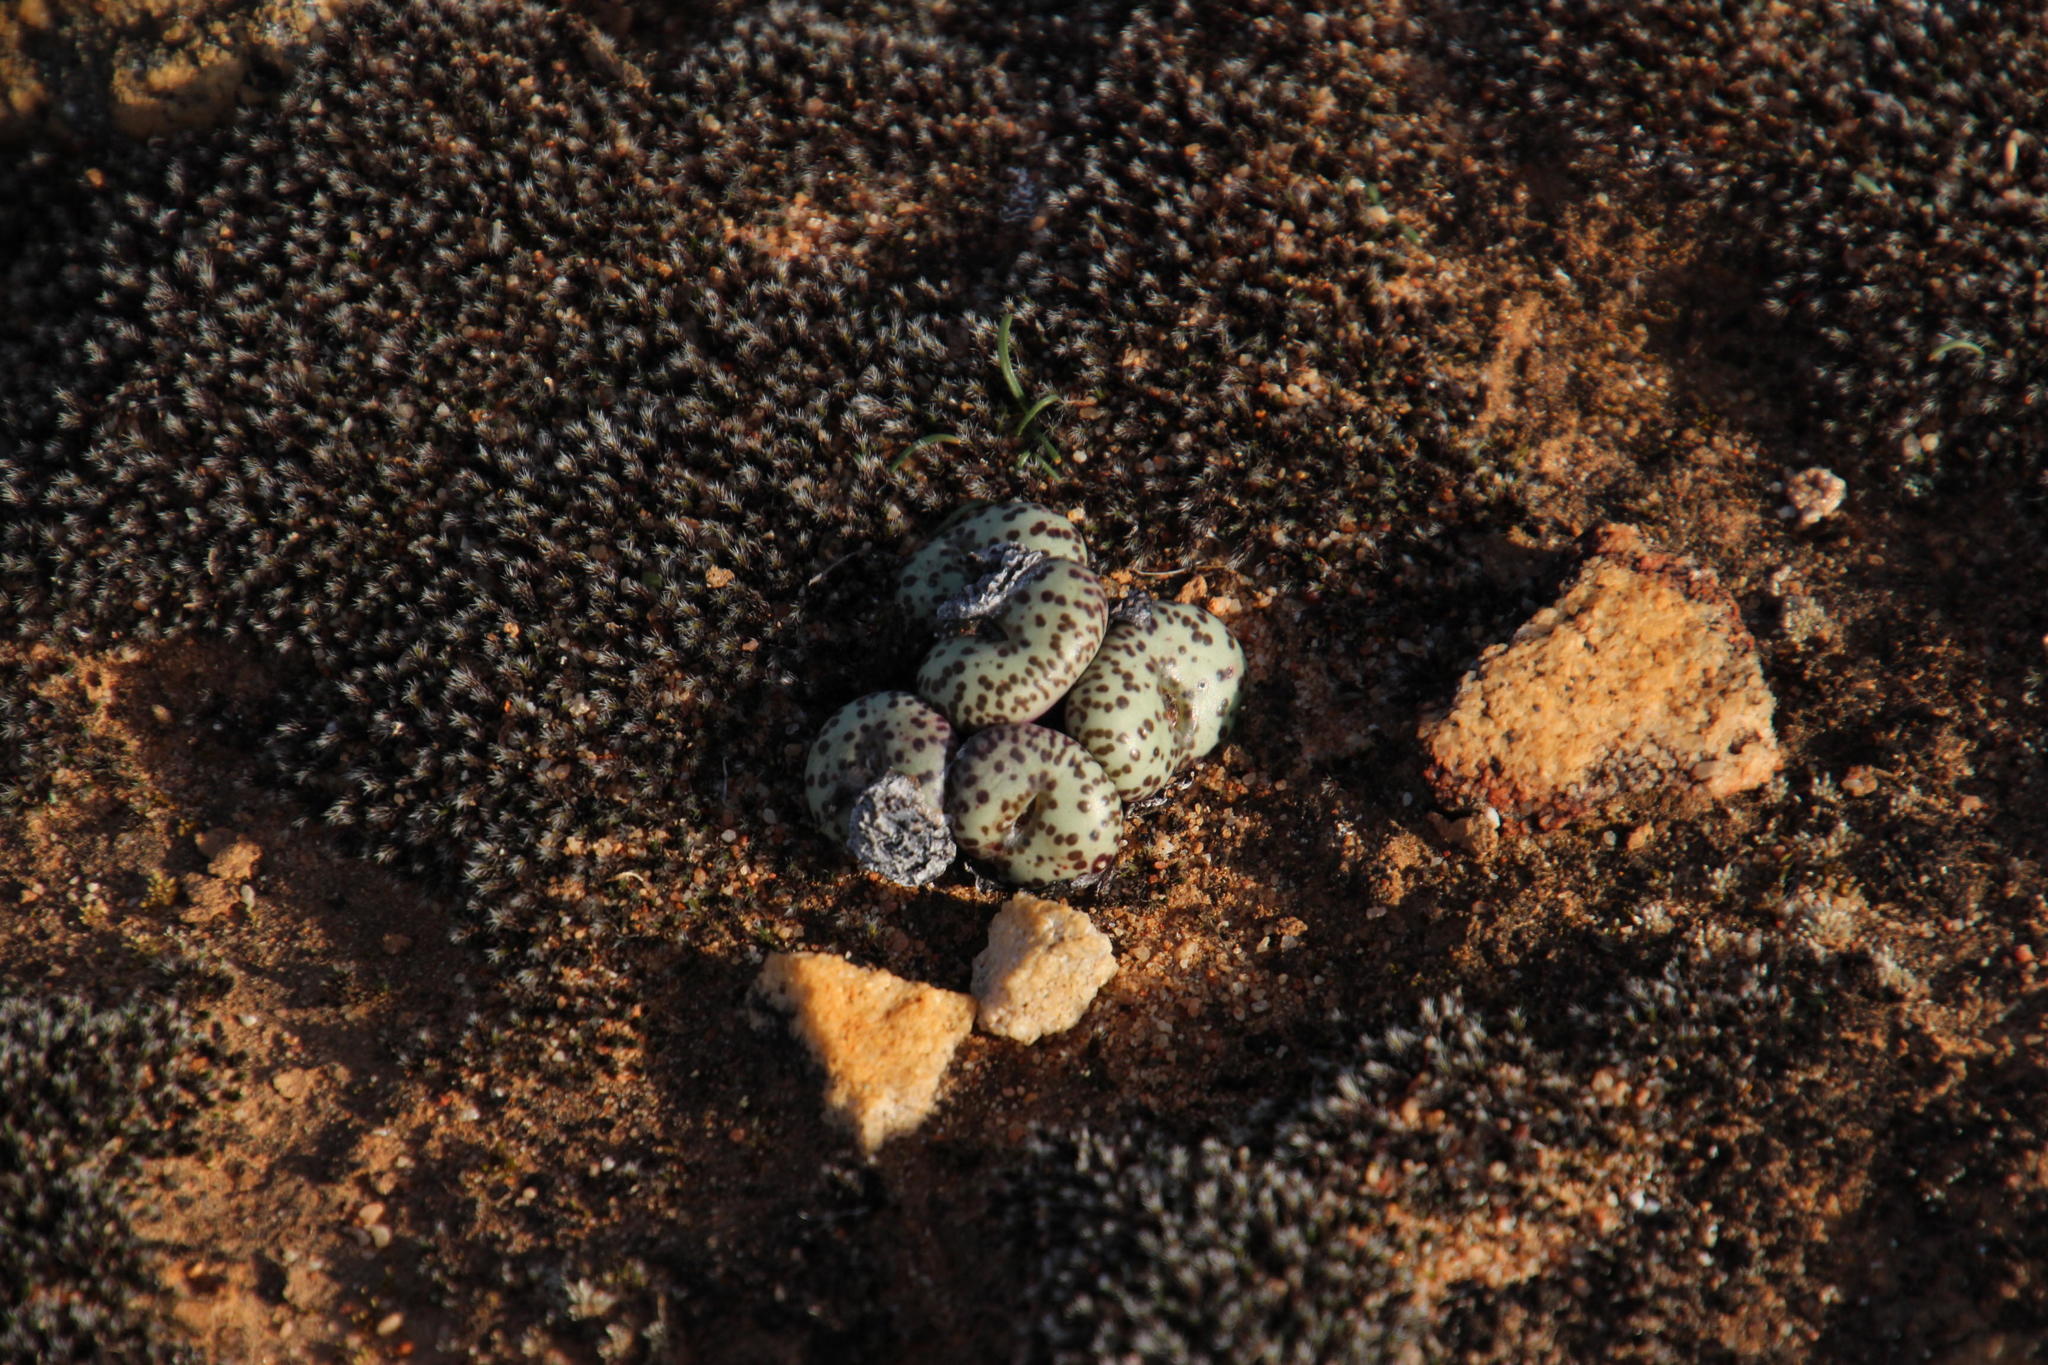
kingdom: Plantae
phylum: Tracheophyta
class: Magnoliopsida
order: Caryophyllales
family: Aizoaceae
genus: Conophytum
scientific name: Conophytum obcordellum
